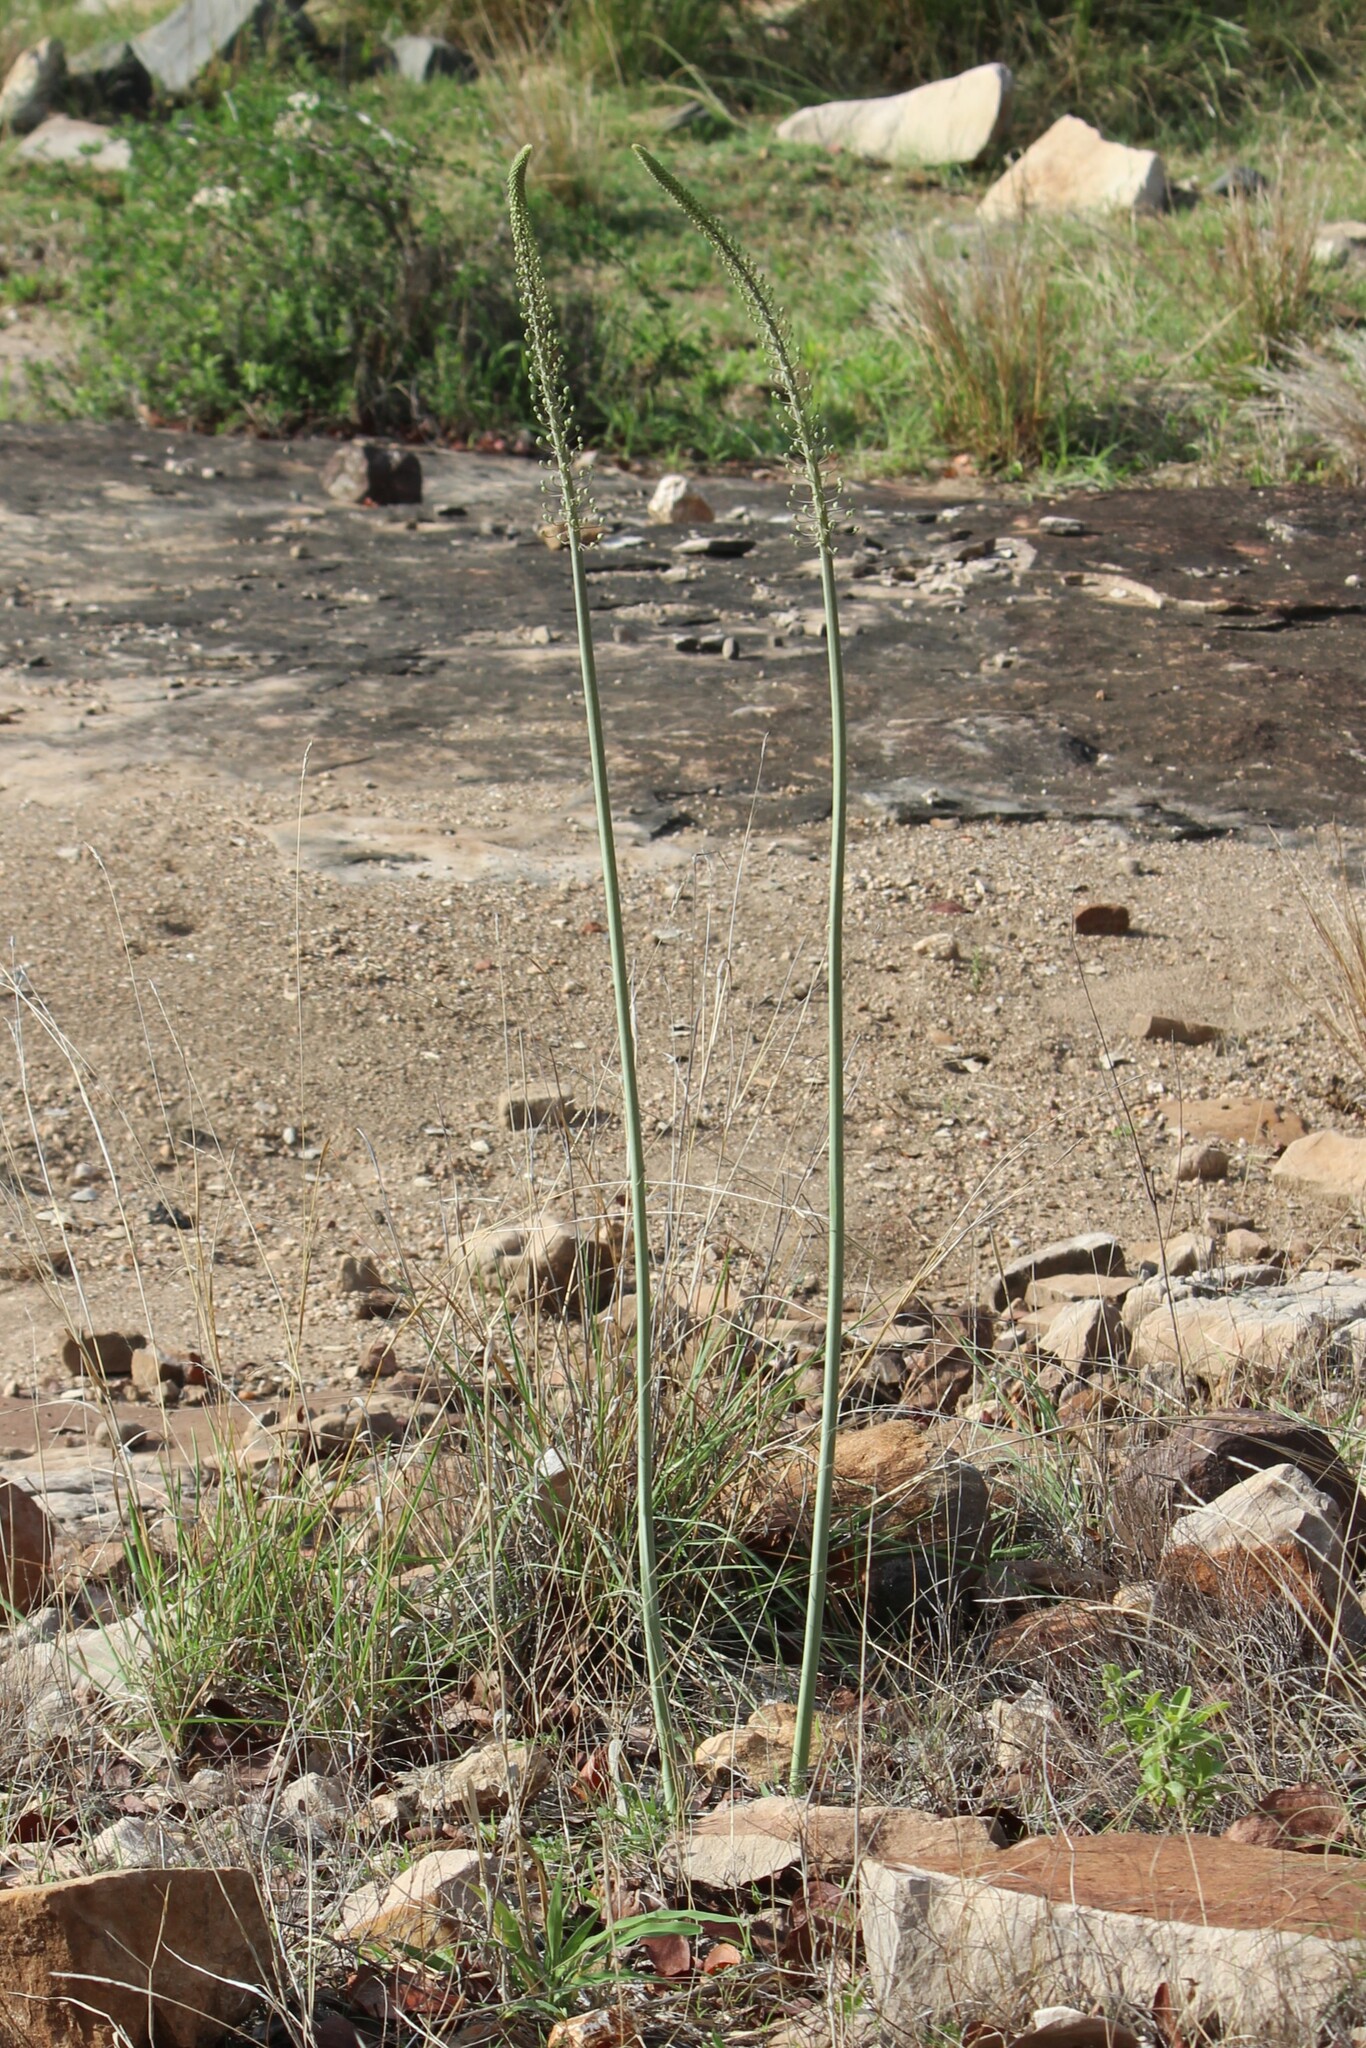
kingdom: Plantae
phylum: Tracheophyta
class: Liliopsida
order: Asparagales
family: Asparagaceae
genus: Drimia
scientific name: Drimia altissima
